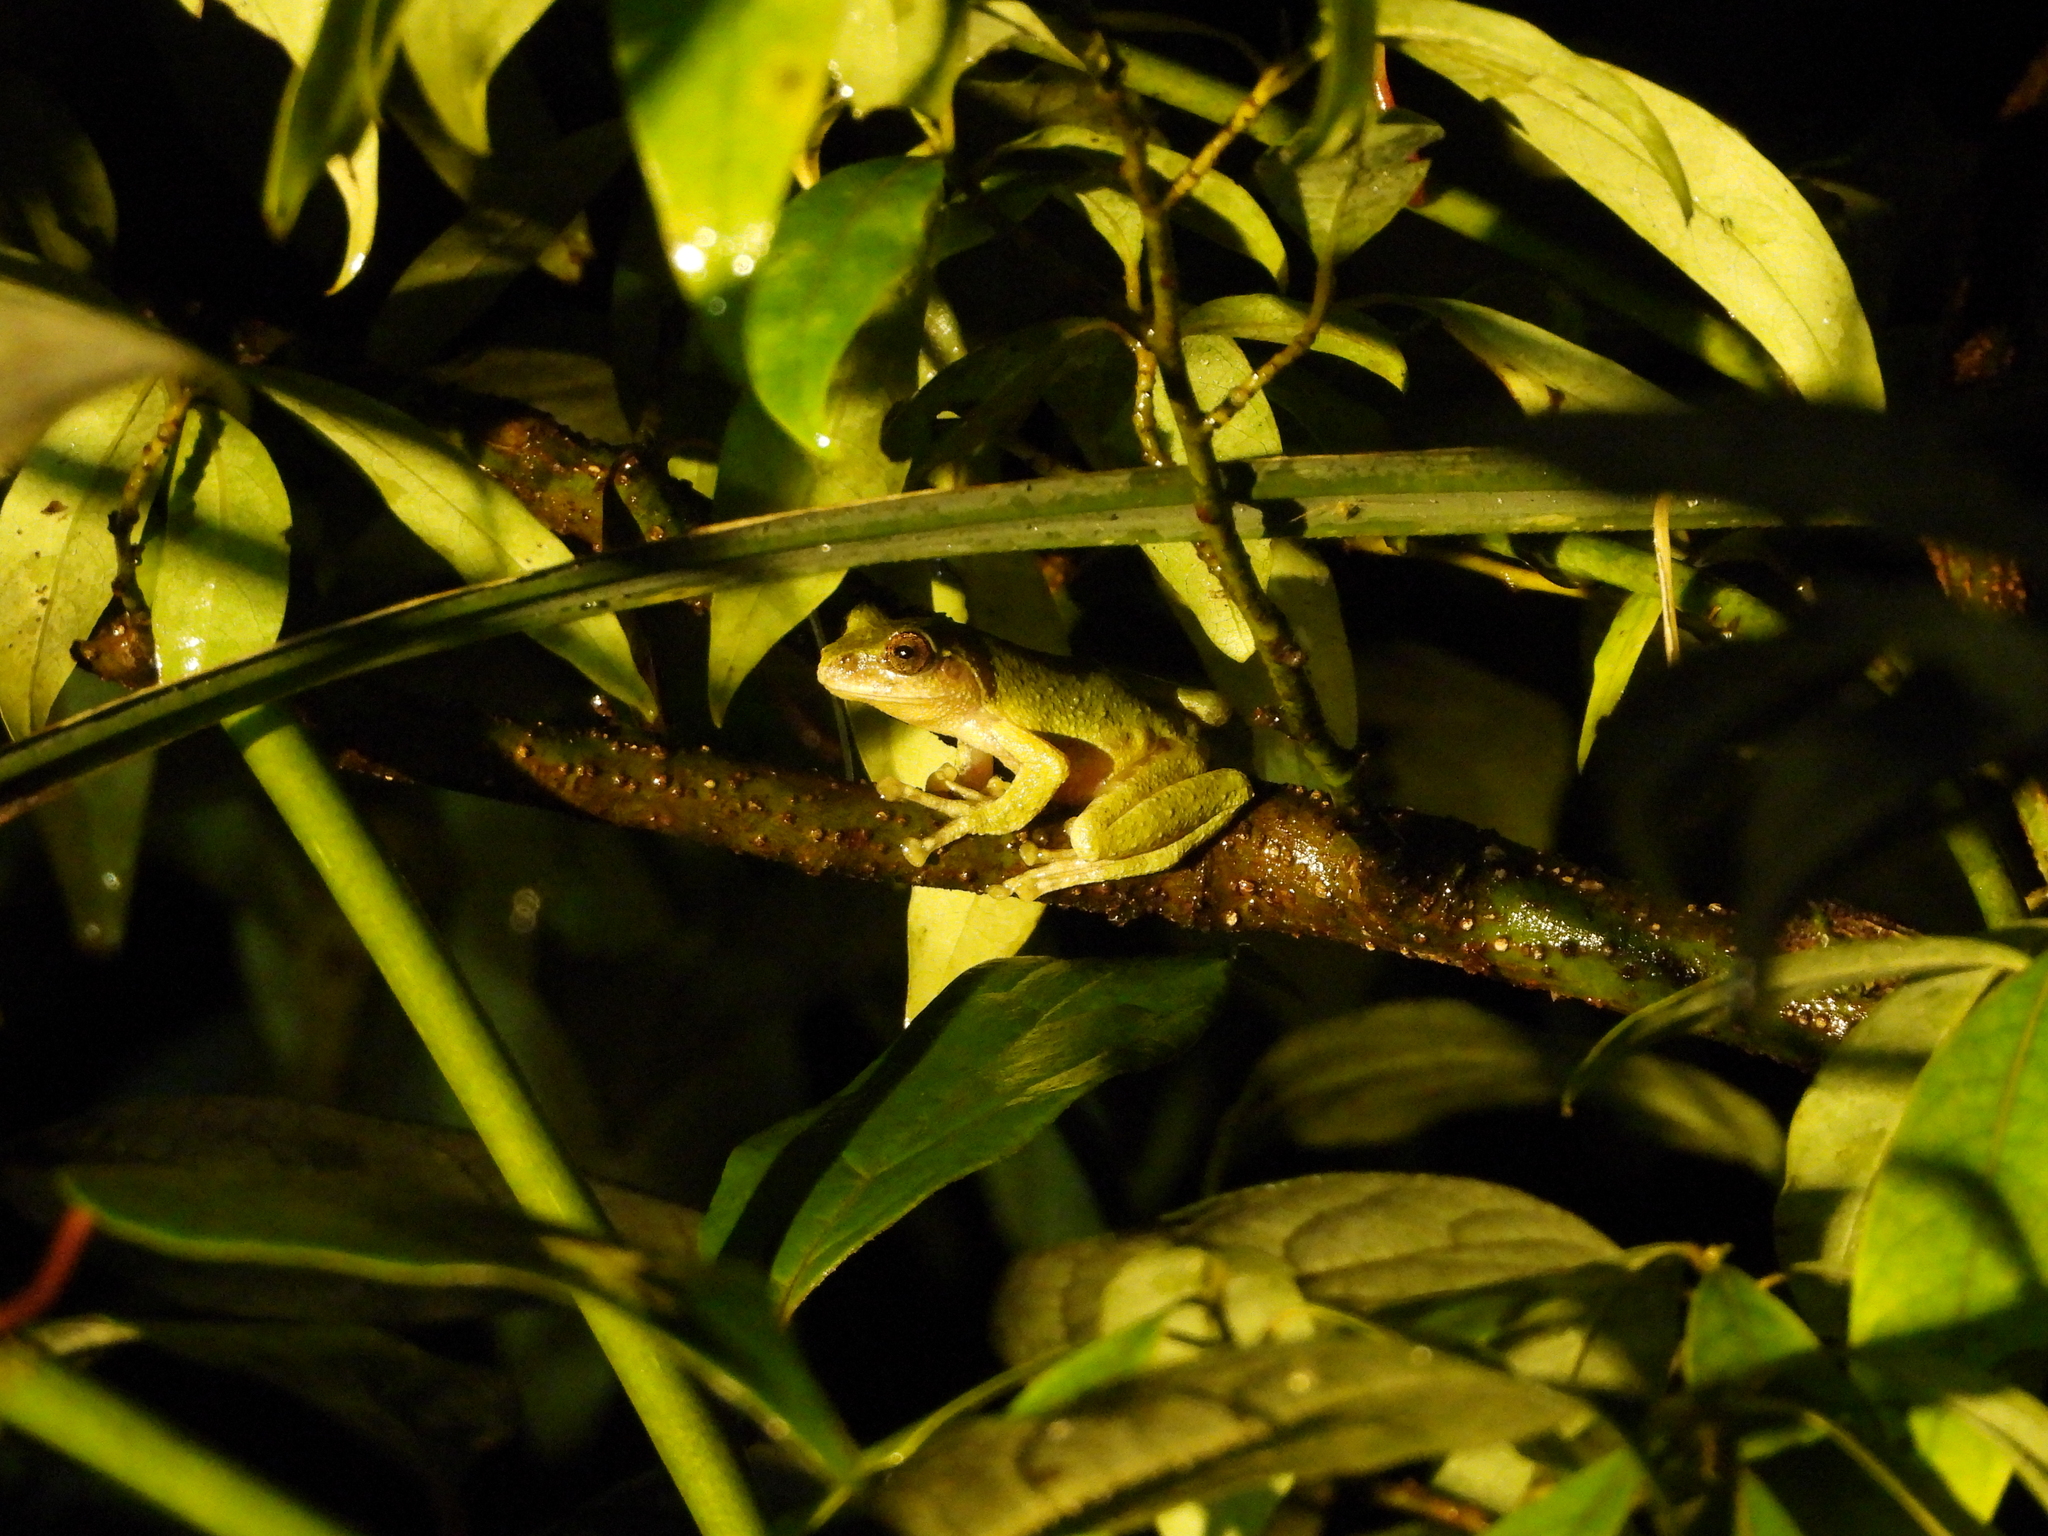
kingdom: Animalia
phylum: Chordata
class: Amphibia
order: Anura
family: Rhacophoridae
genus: Kurixalus
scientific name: Kurixalus eiffingeri
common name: Eiffinger’s treefrog
